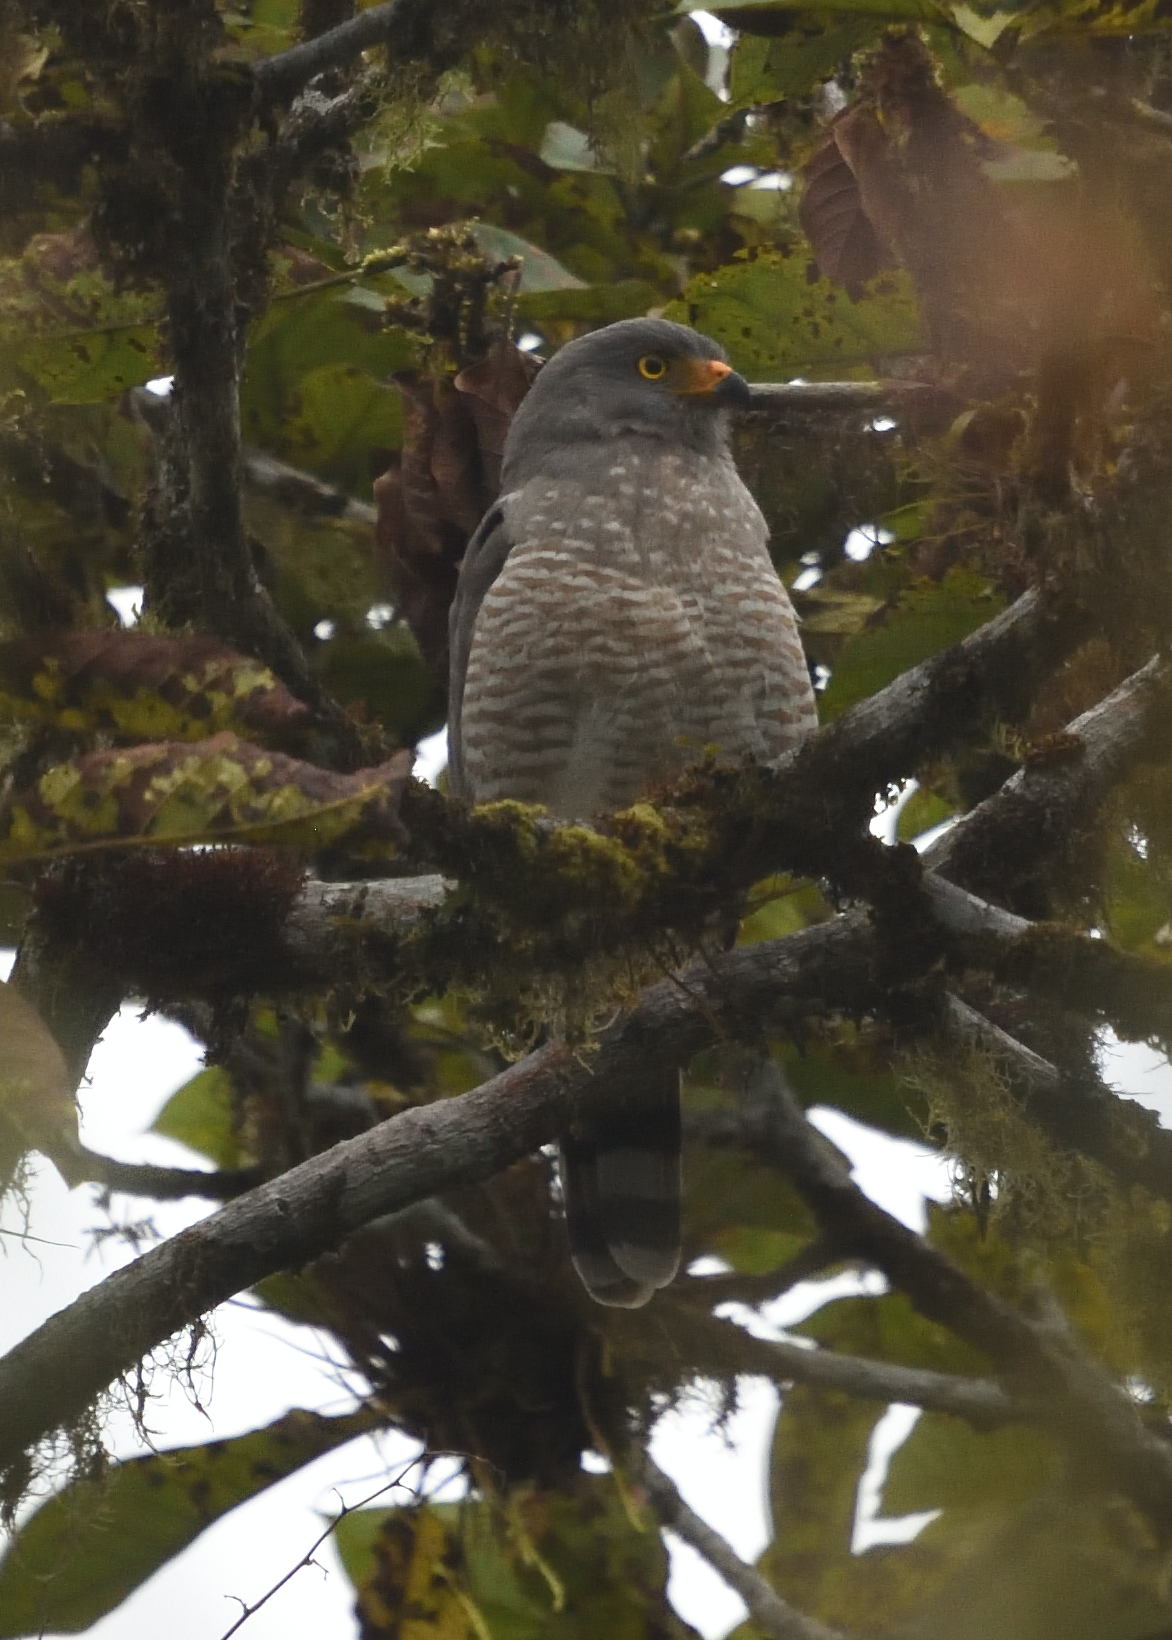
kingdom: Animalia
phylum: Chordata
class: Aves
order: Accipitriformes
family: Accipitridae
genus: Rupornis
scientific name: Rupornis magnirostris
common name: Roadside hawk
